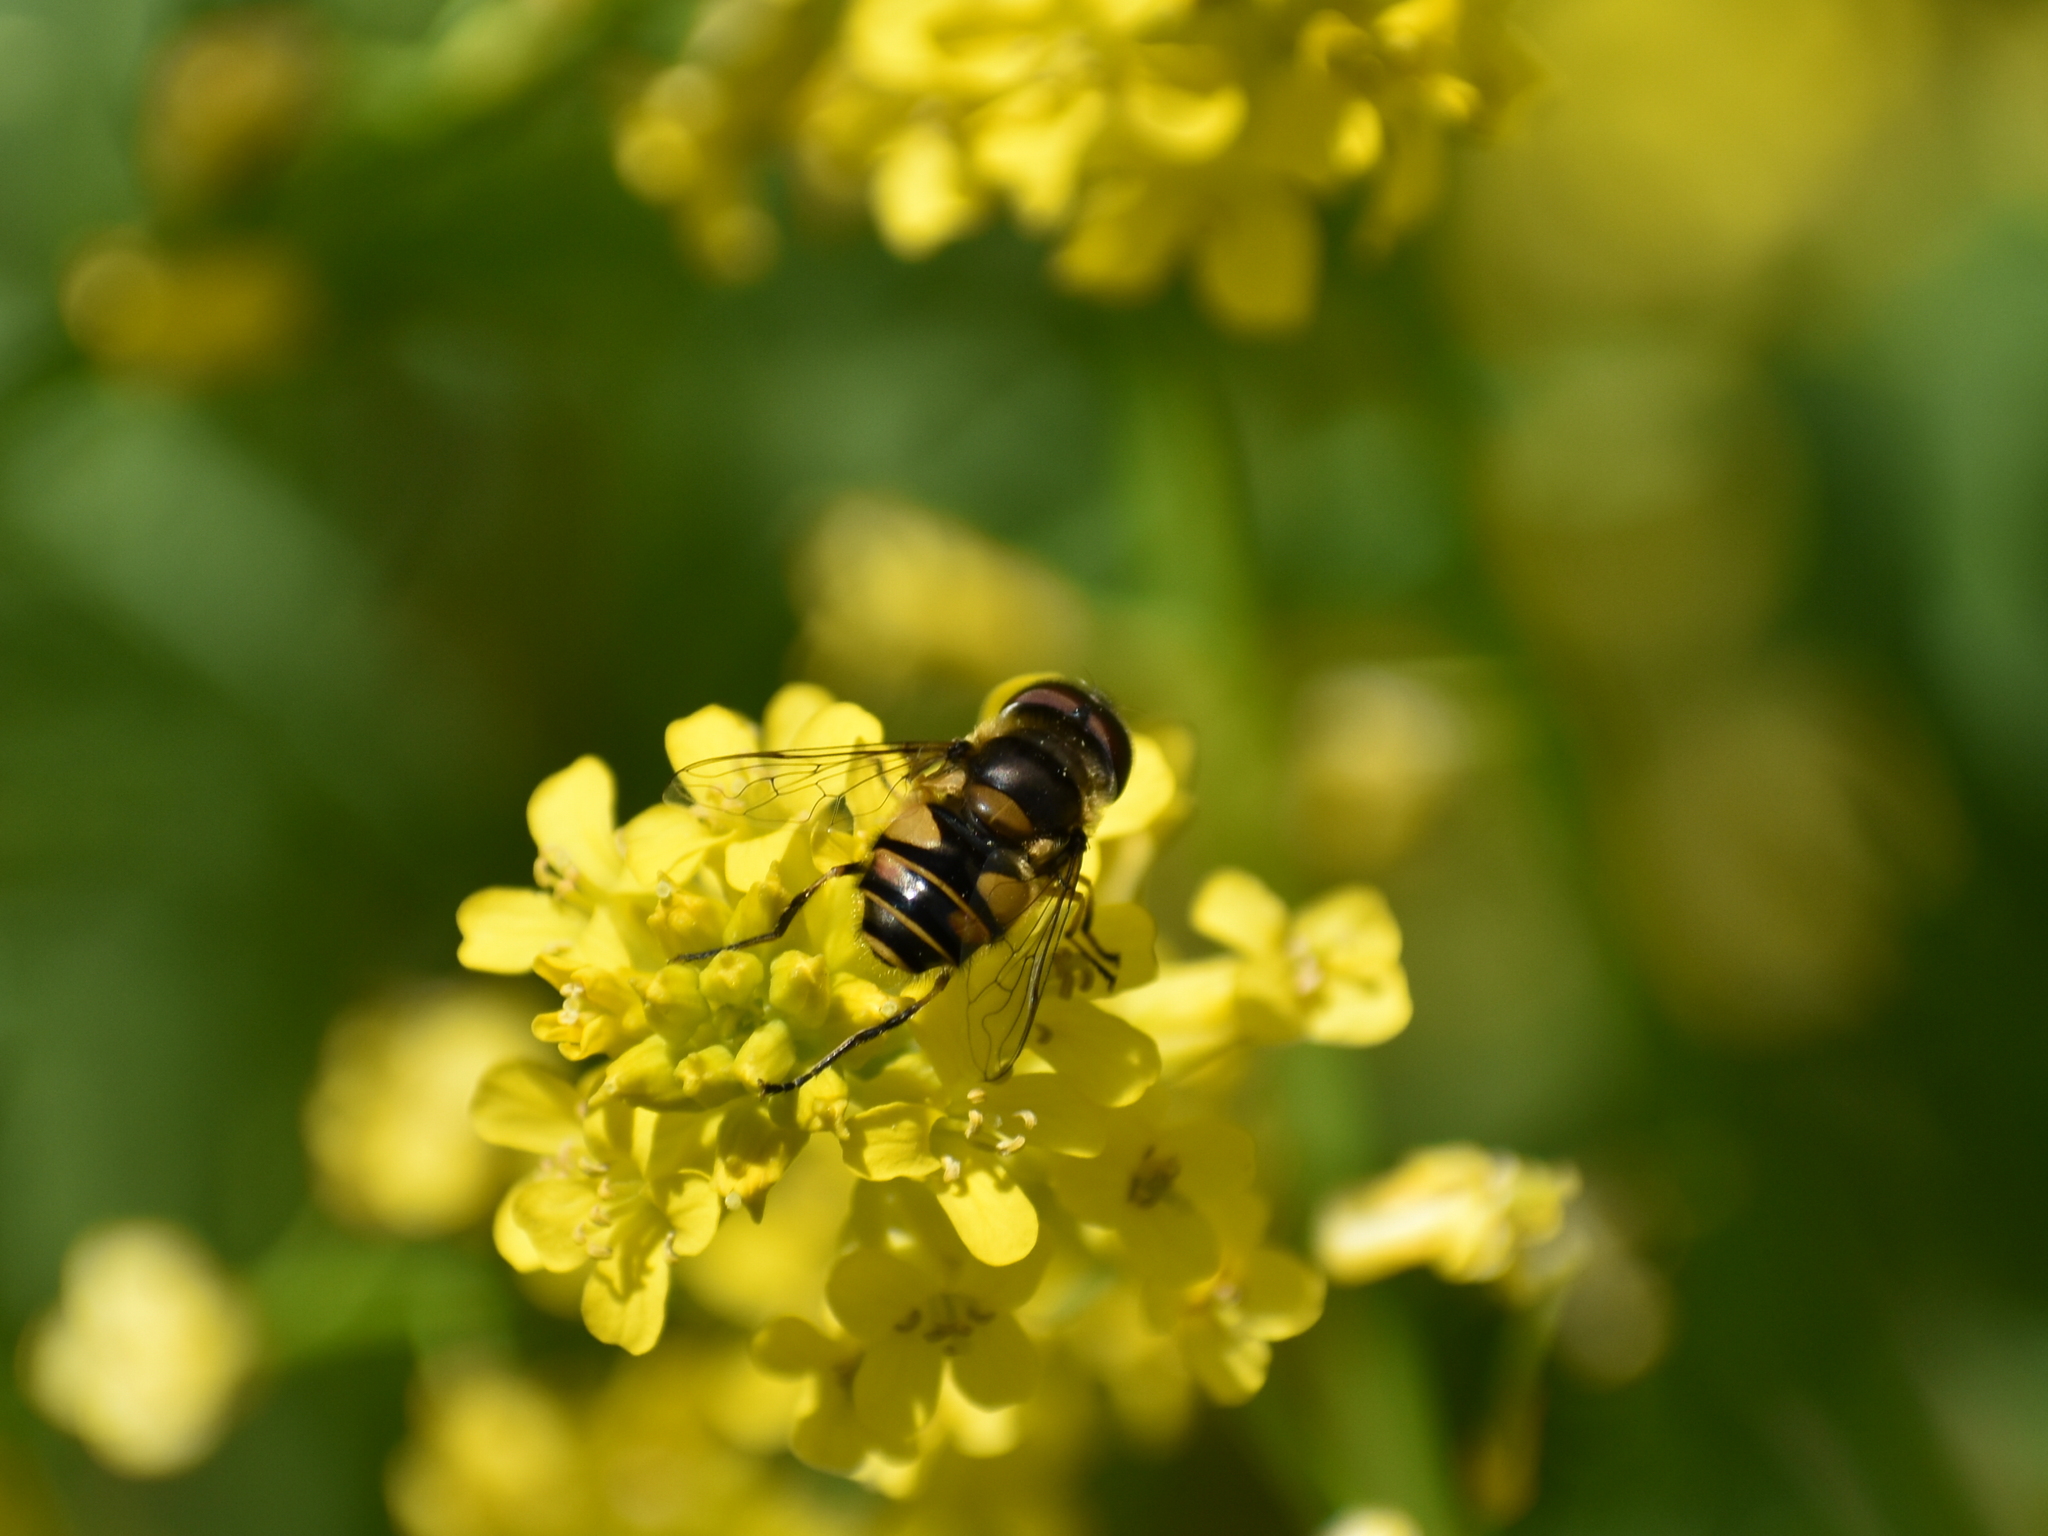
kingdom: Animalia
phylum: Arthropoda
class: Insecta
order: Diptera
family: Syrphidae
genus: Eristalis
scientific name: Eristalis transversa
